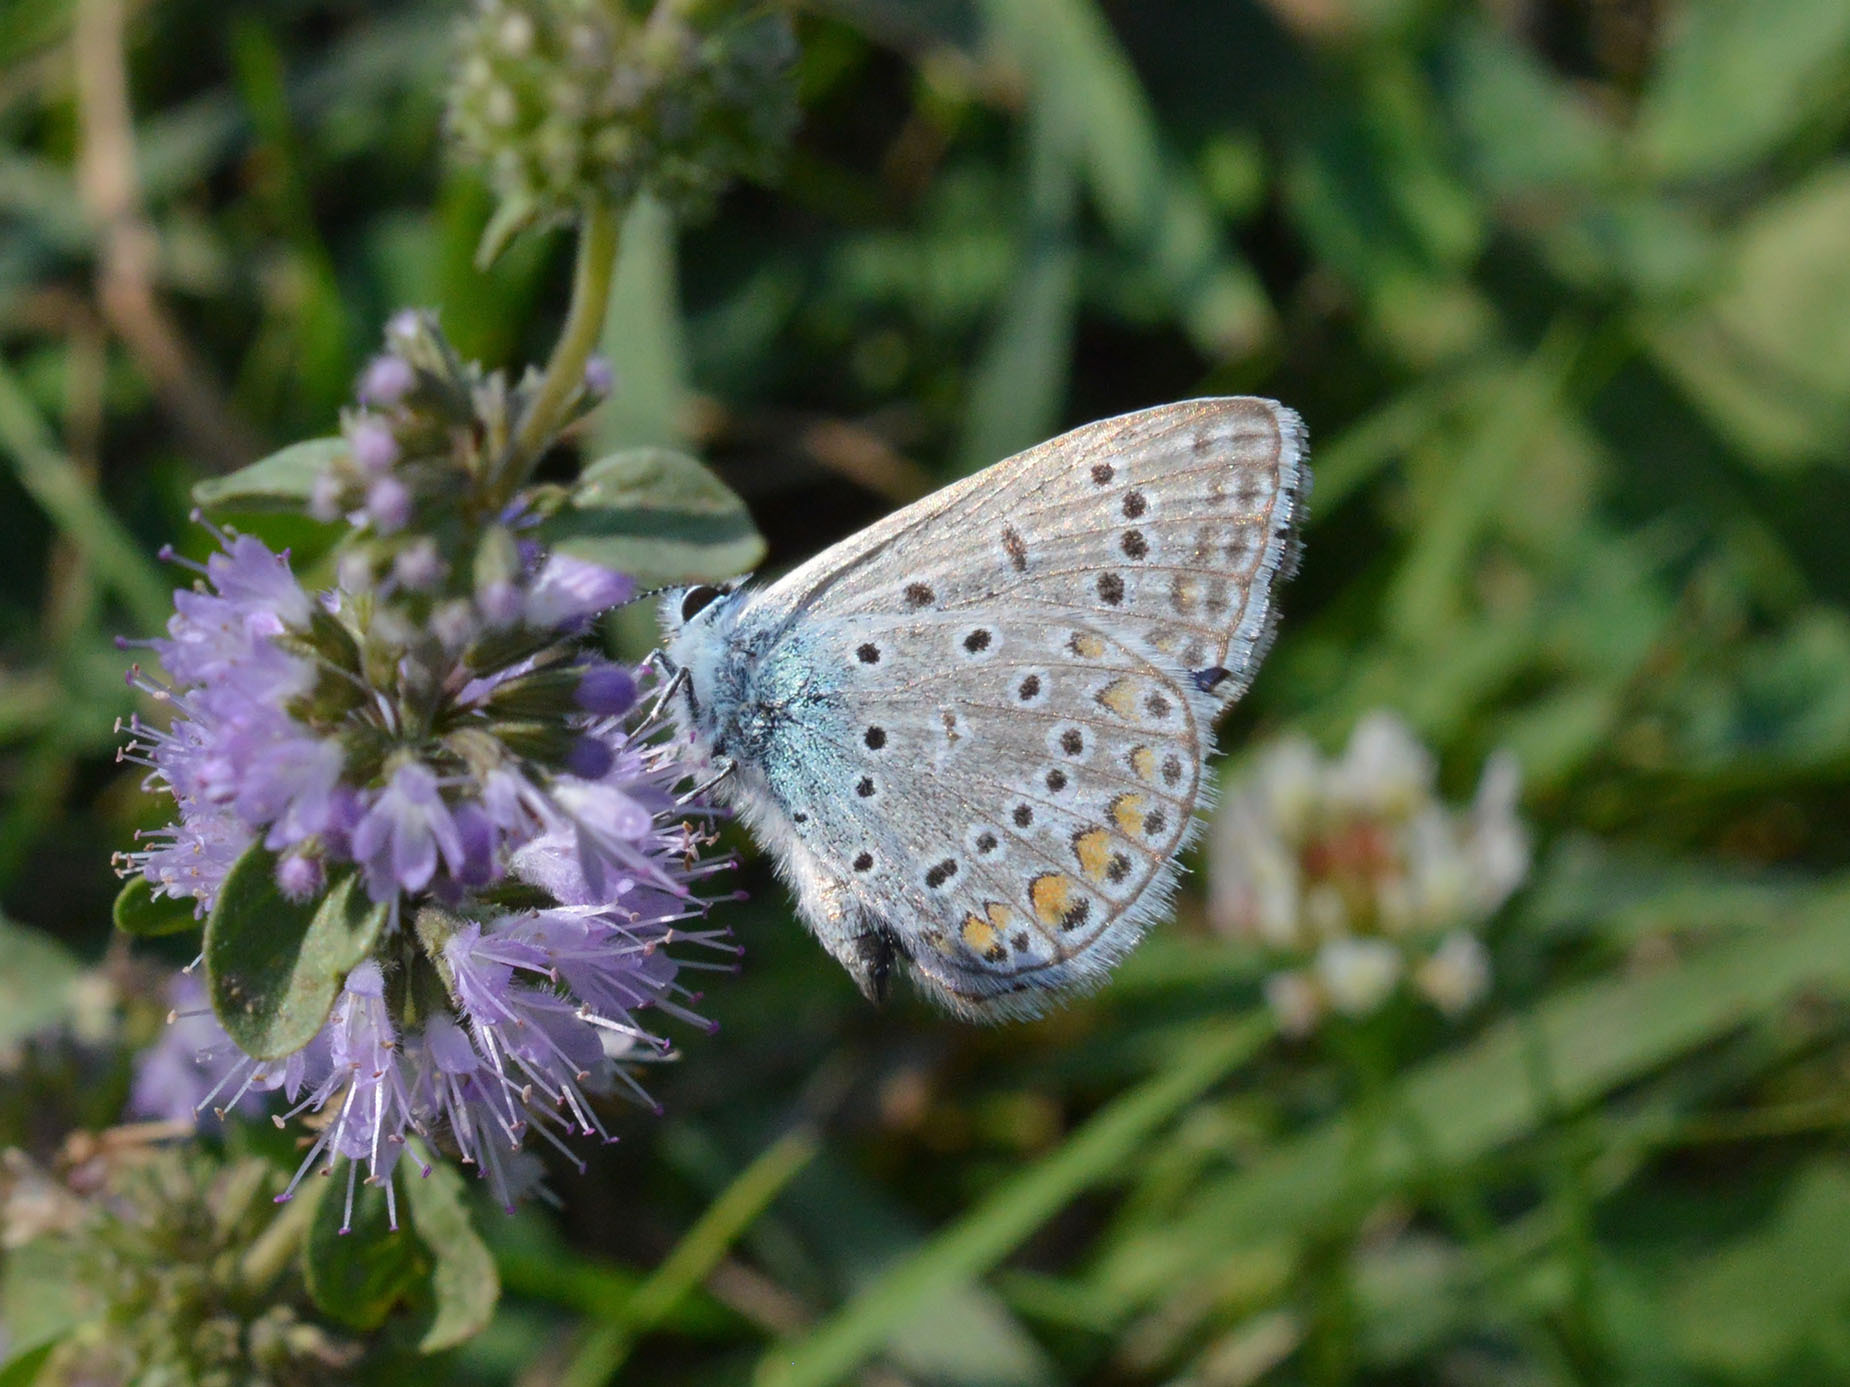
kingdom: Animalia
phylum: Arthropoda
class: Insecta
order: Lepidoptera
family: Lycaenidae
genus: Polyommatus
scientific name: Polyommatus icarus
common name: Common blue
